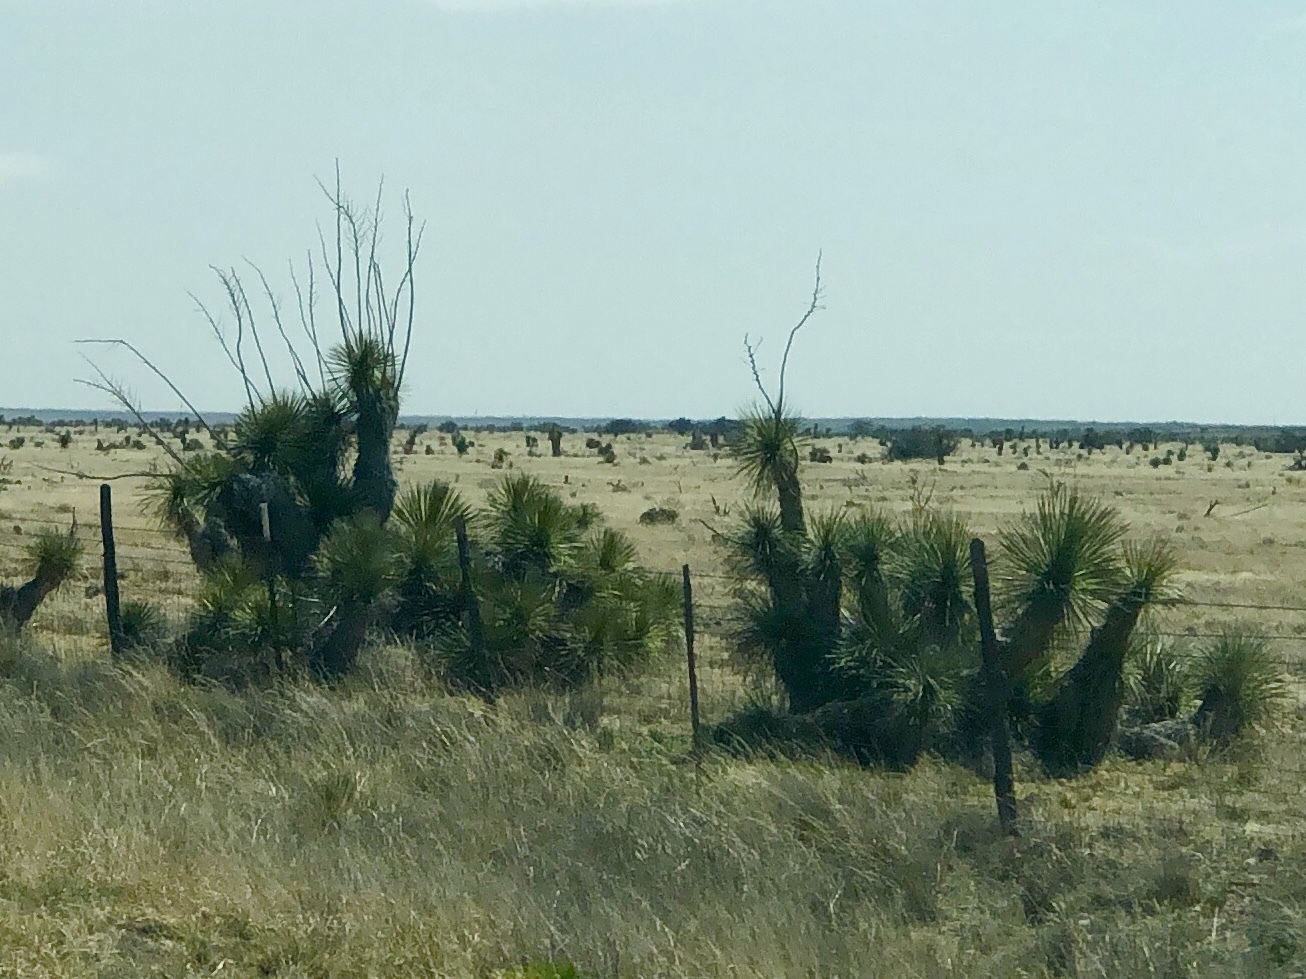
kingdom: Plantae
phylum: Tracheophyta
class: Liliopsida
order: Asparagales
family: Asparagaceae
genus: Yucca
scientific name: Yucca elata
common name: Palmella
